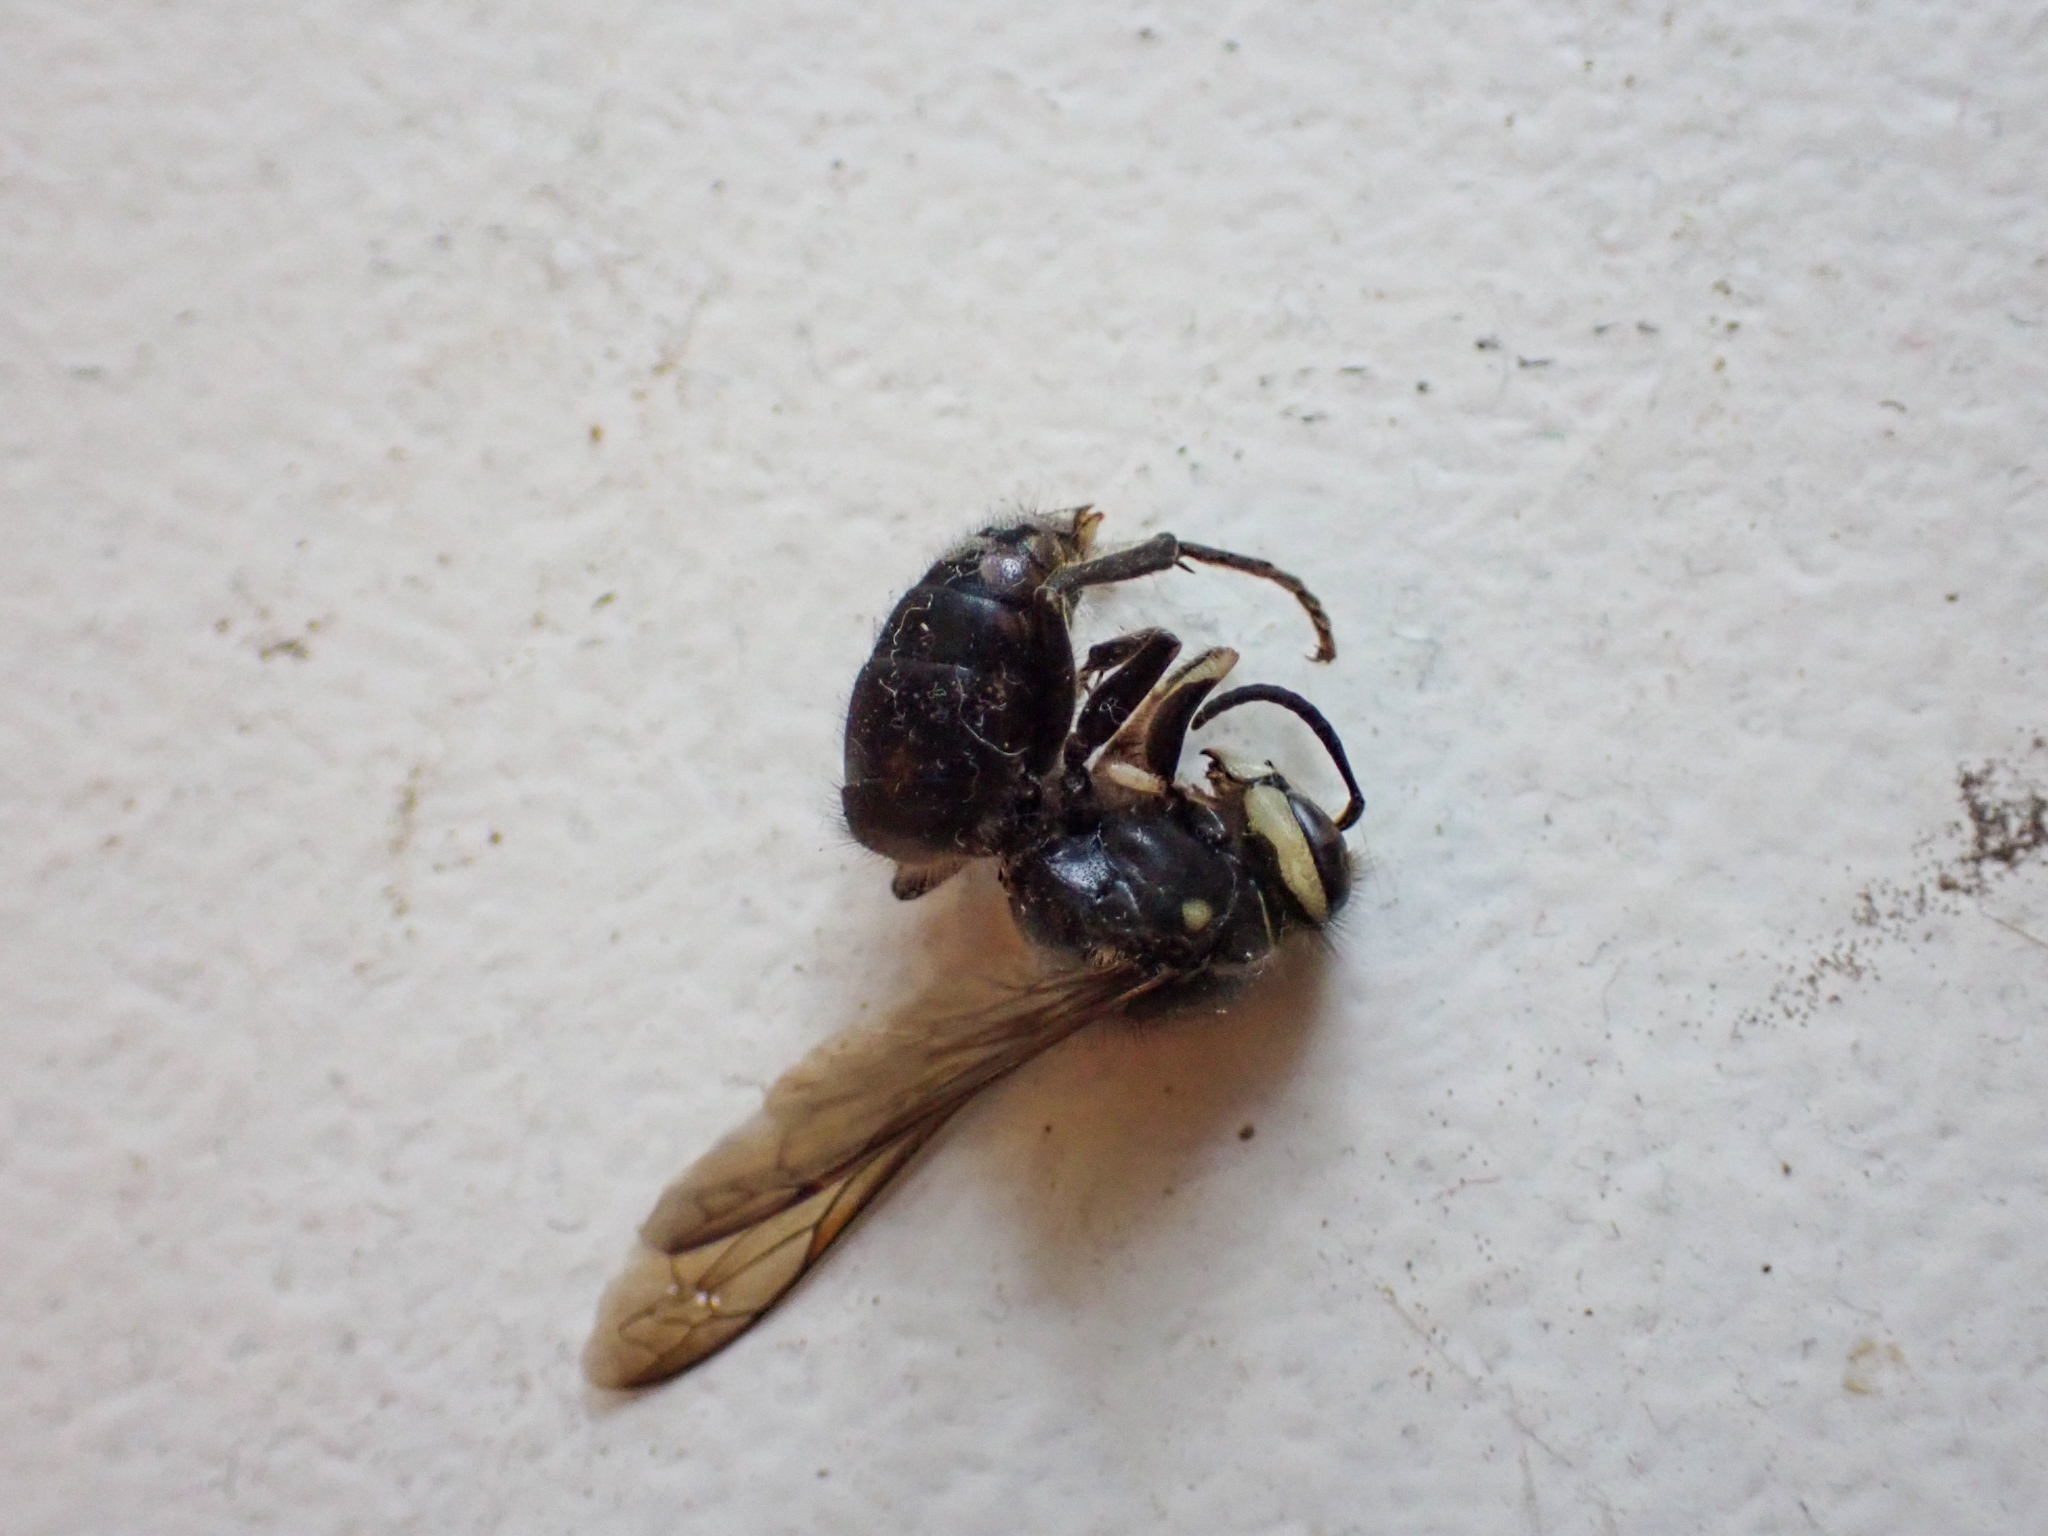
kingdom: Animalia
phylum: Arthropoda
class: Insecta
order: Hymenoptera
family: Vespidae
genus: Dolichovespula
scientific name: Dolichovespula maculata
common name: Bald-faced hornet
